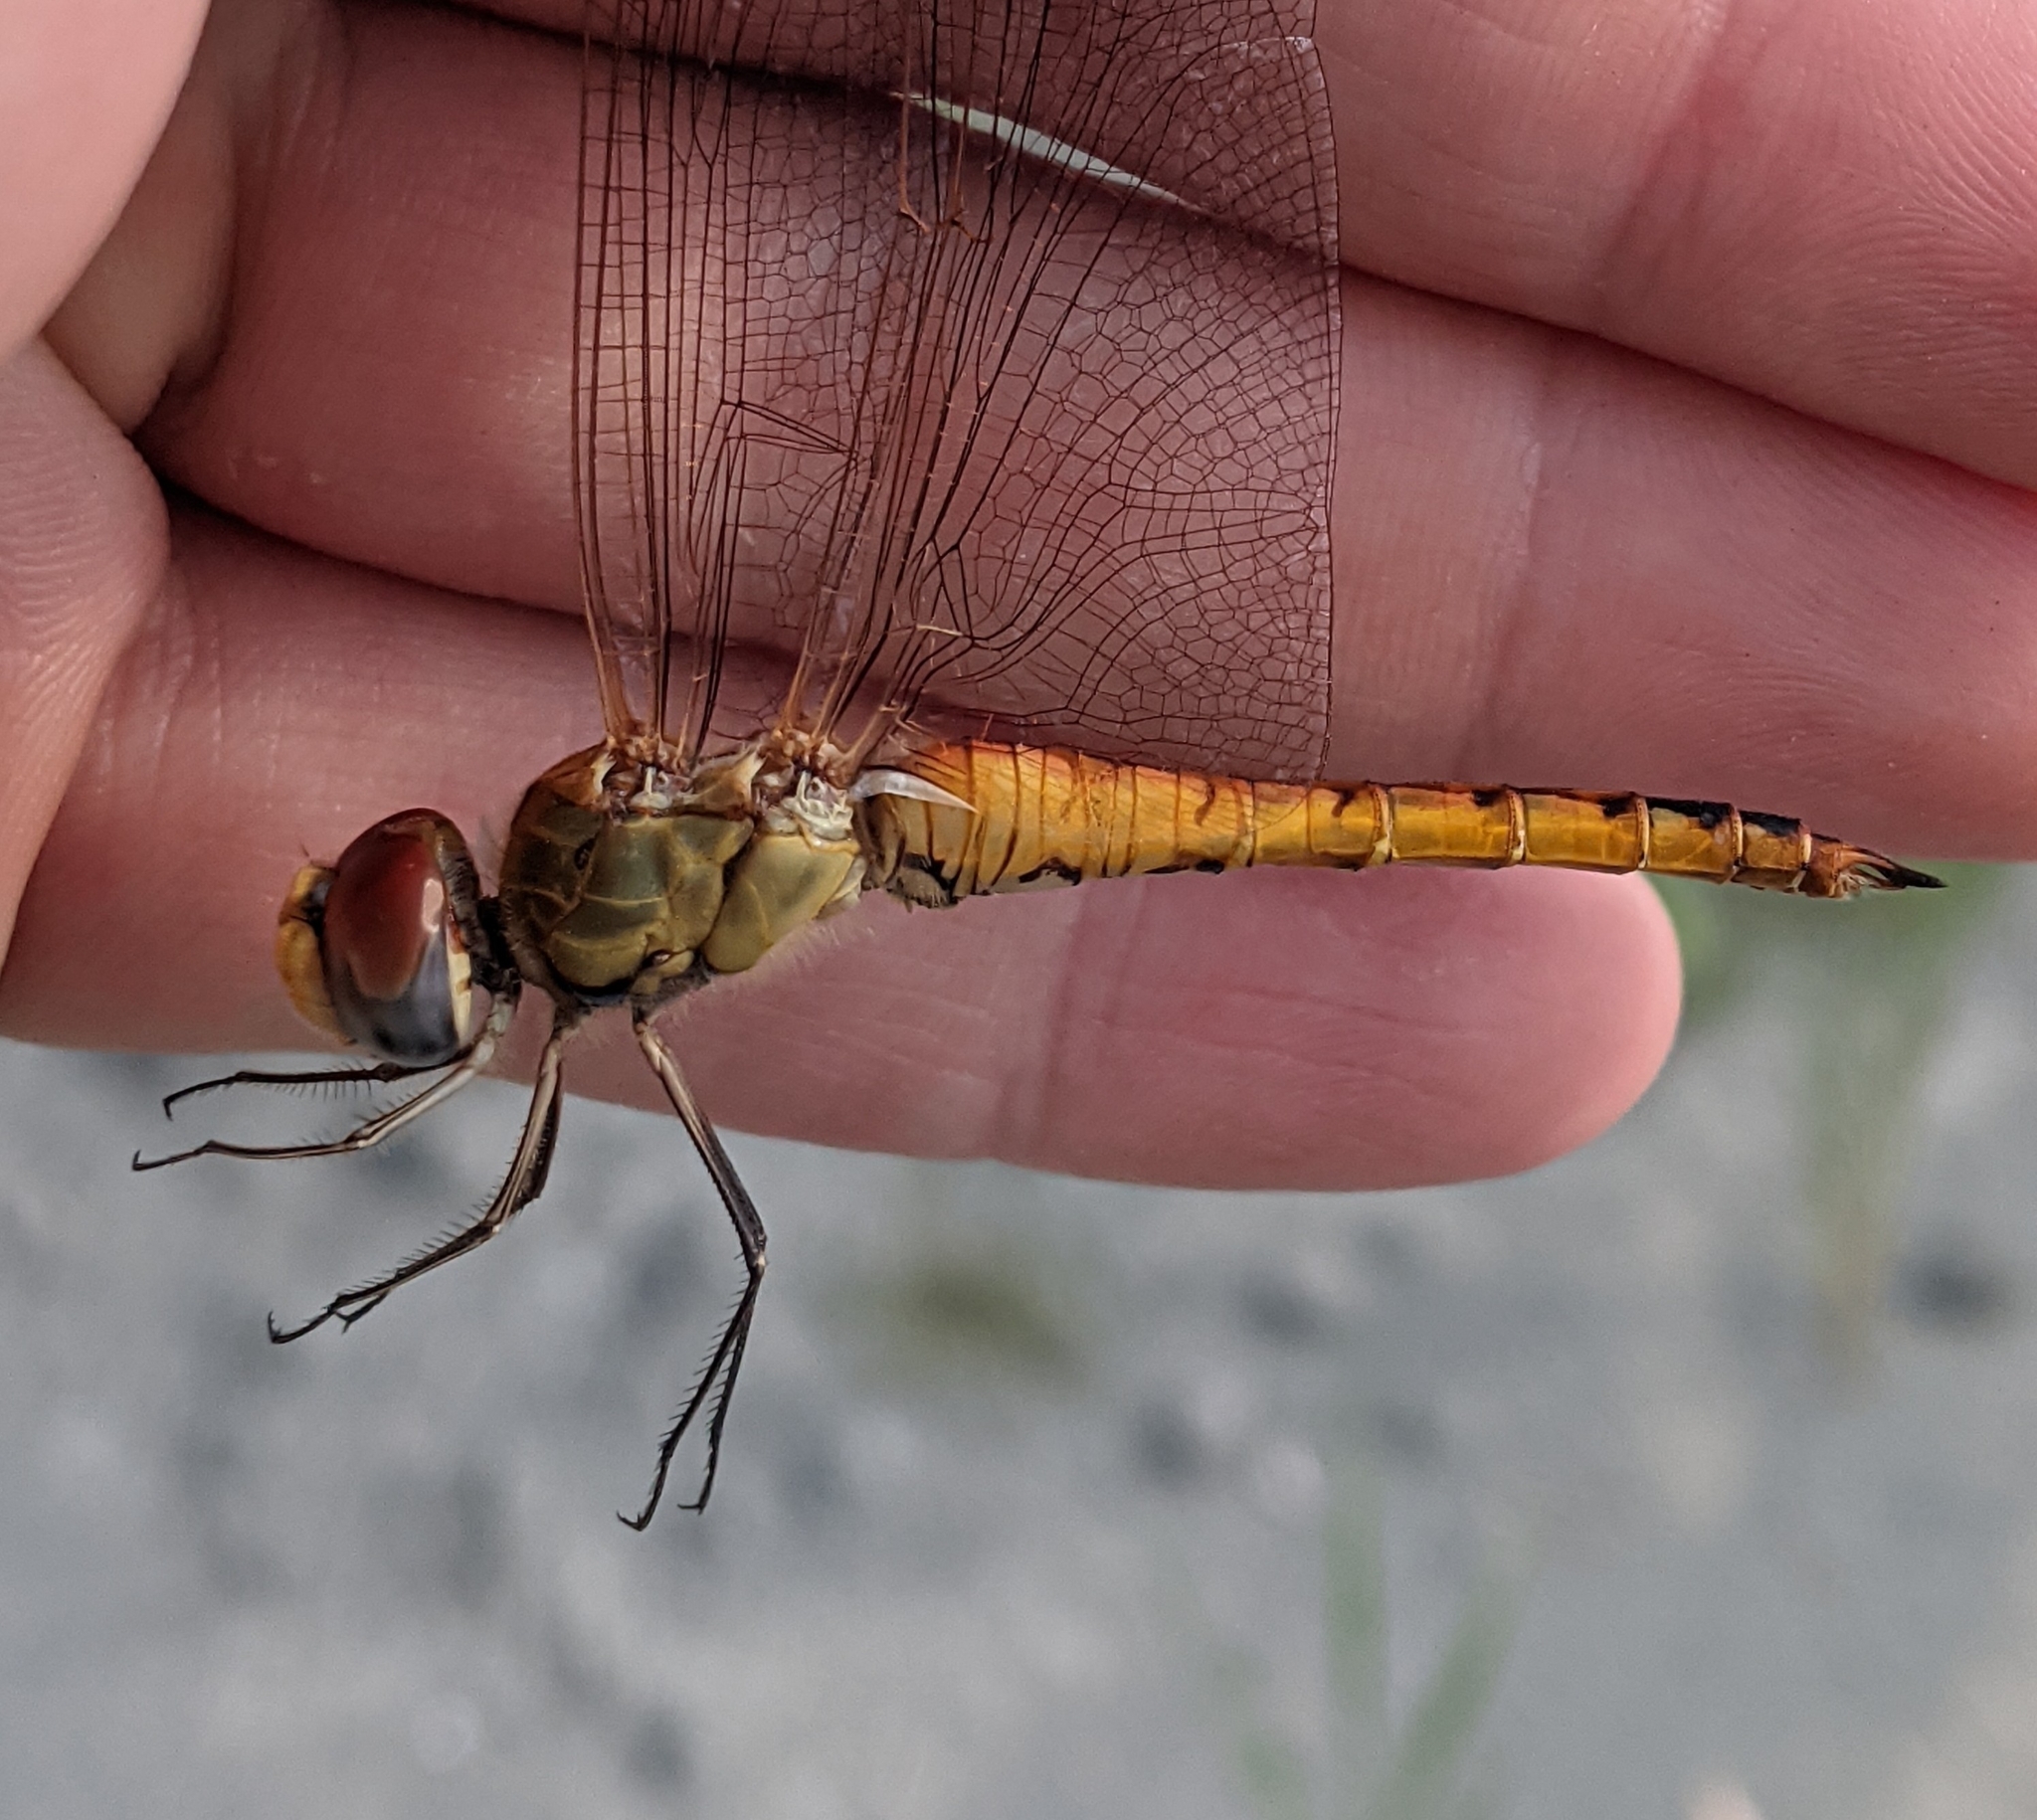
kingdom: Animalia
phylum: Arthropoda
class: Insecta
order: Odonata
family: Libellulidae
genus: Pantala
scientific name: Pantala flavescens
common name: Wandering glider
